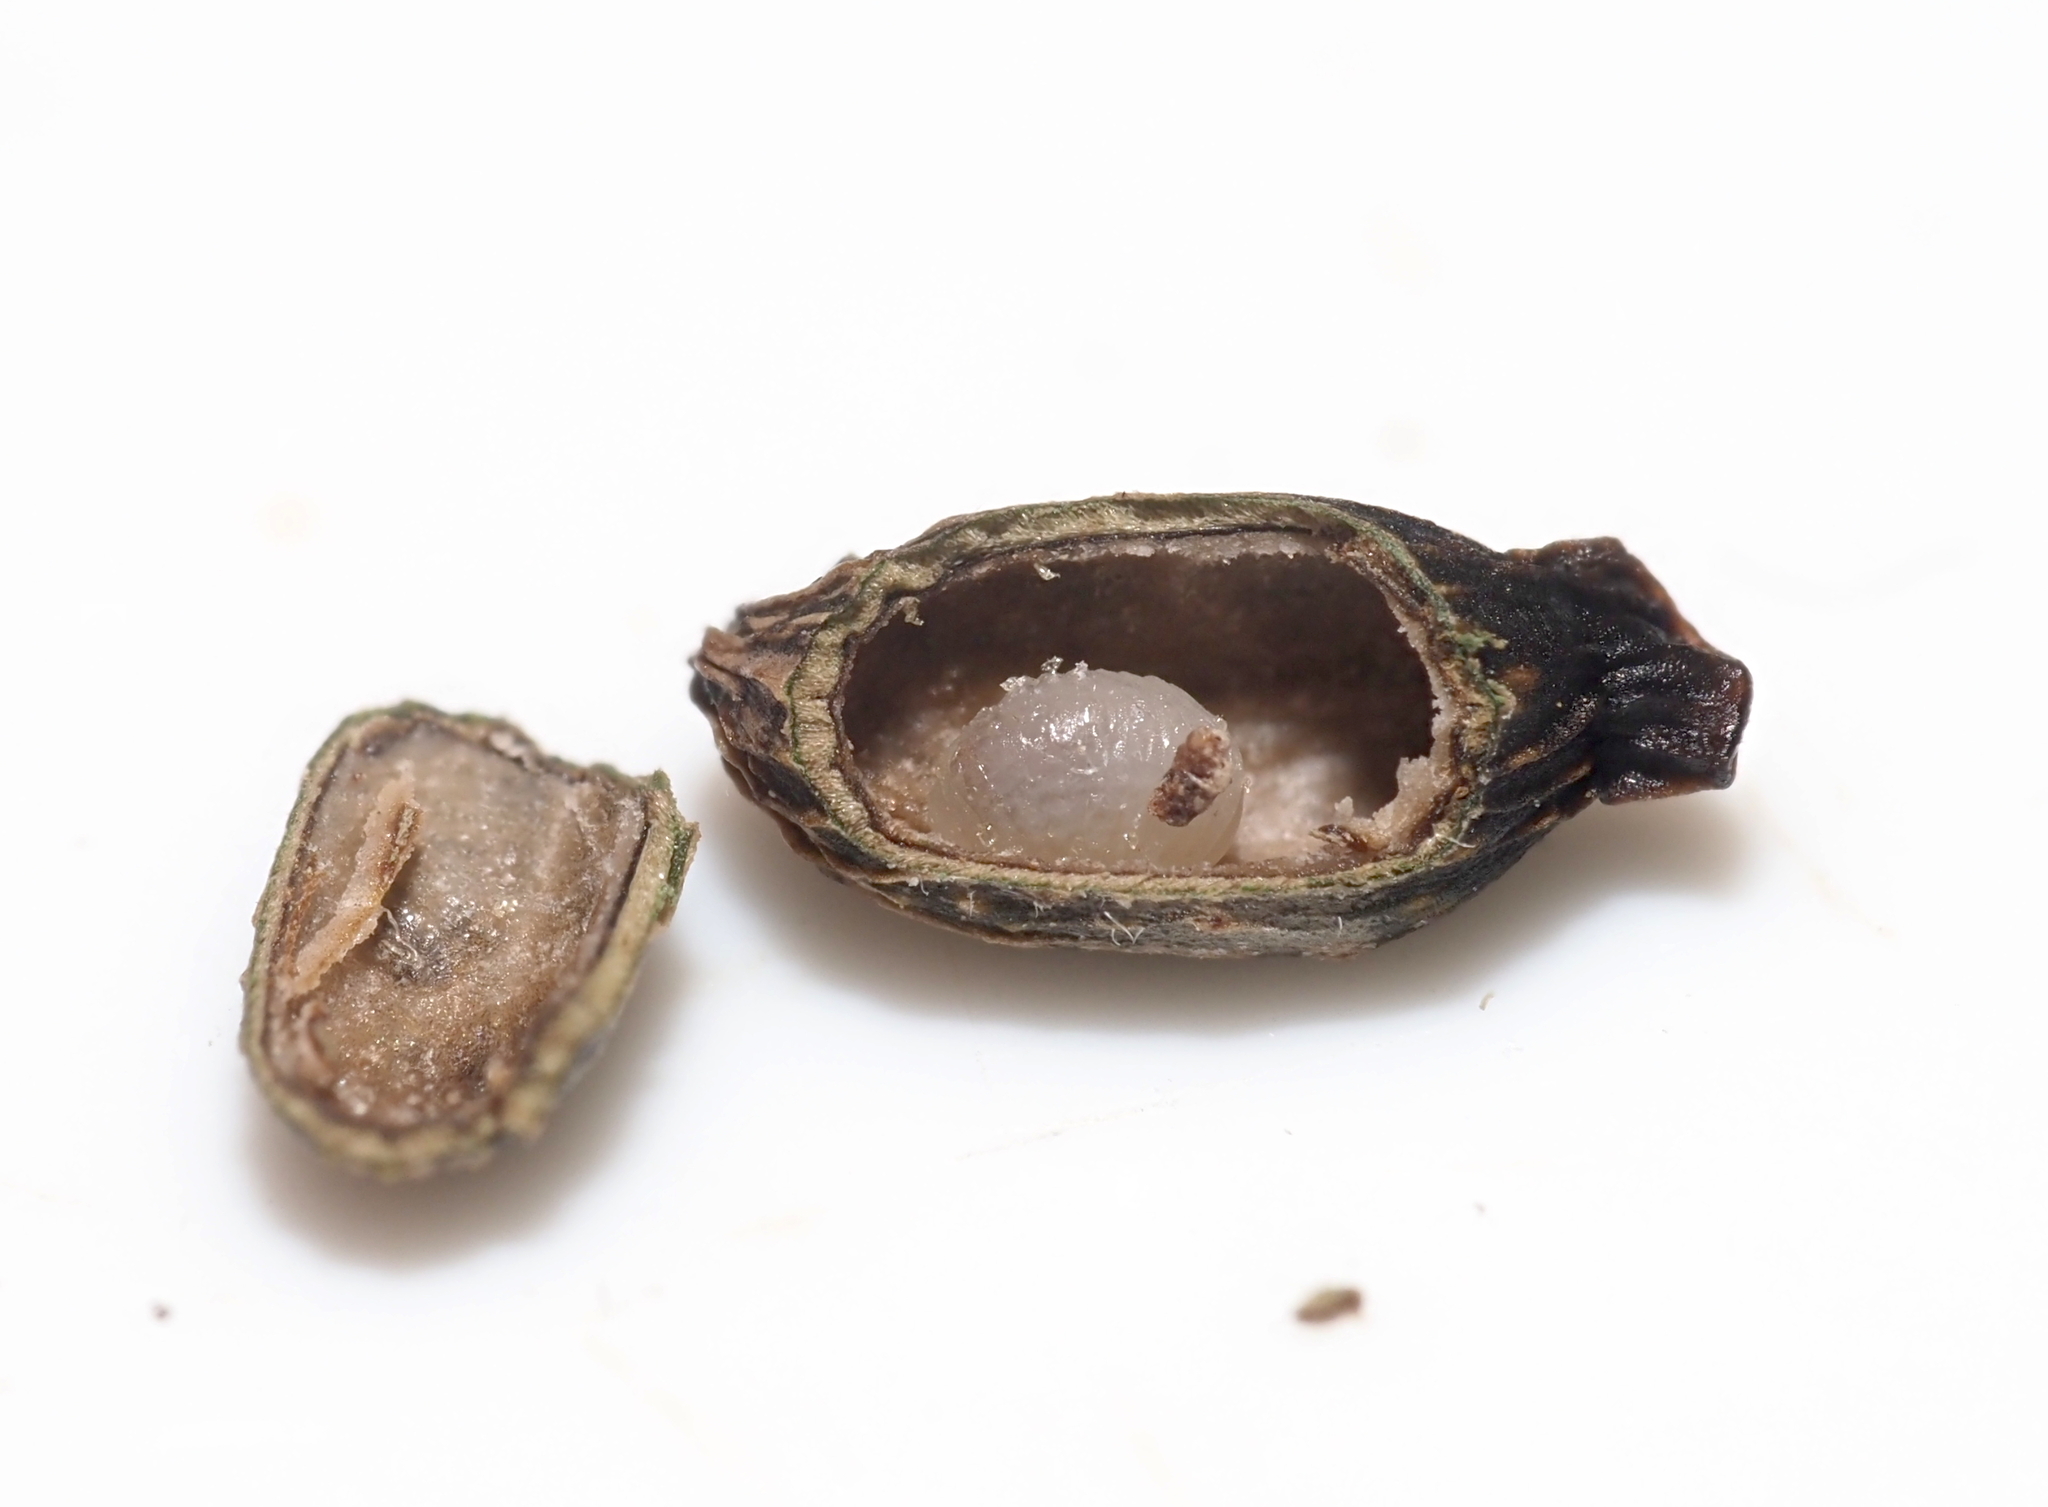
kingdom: Animalia
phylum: Arthropoda
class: Insecta
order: Hymenoptera
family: Cynipidae
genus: Amphibolips
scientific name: Amphibolips
